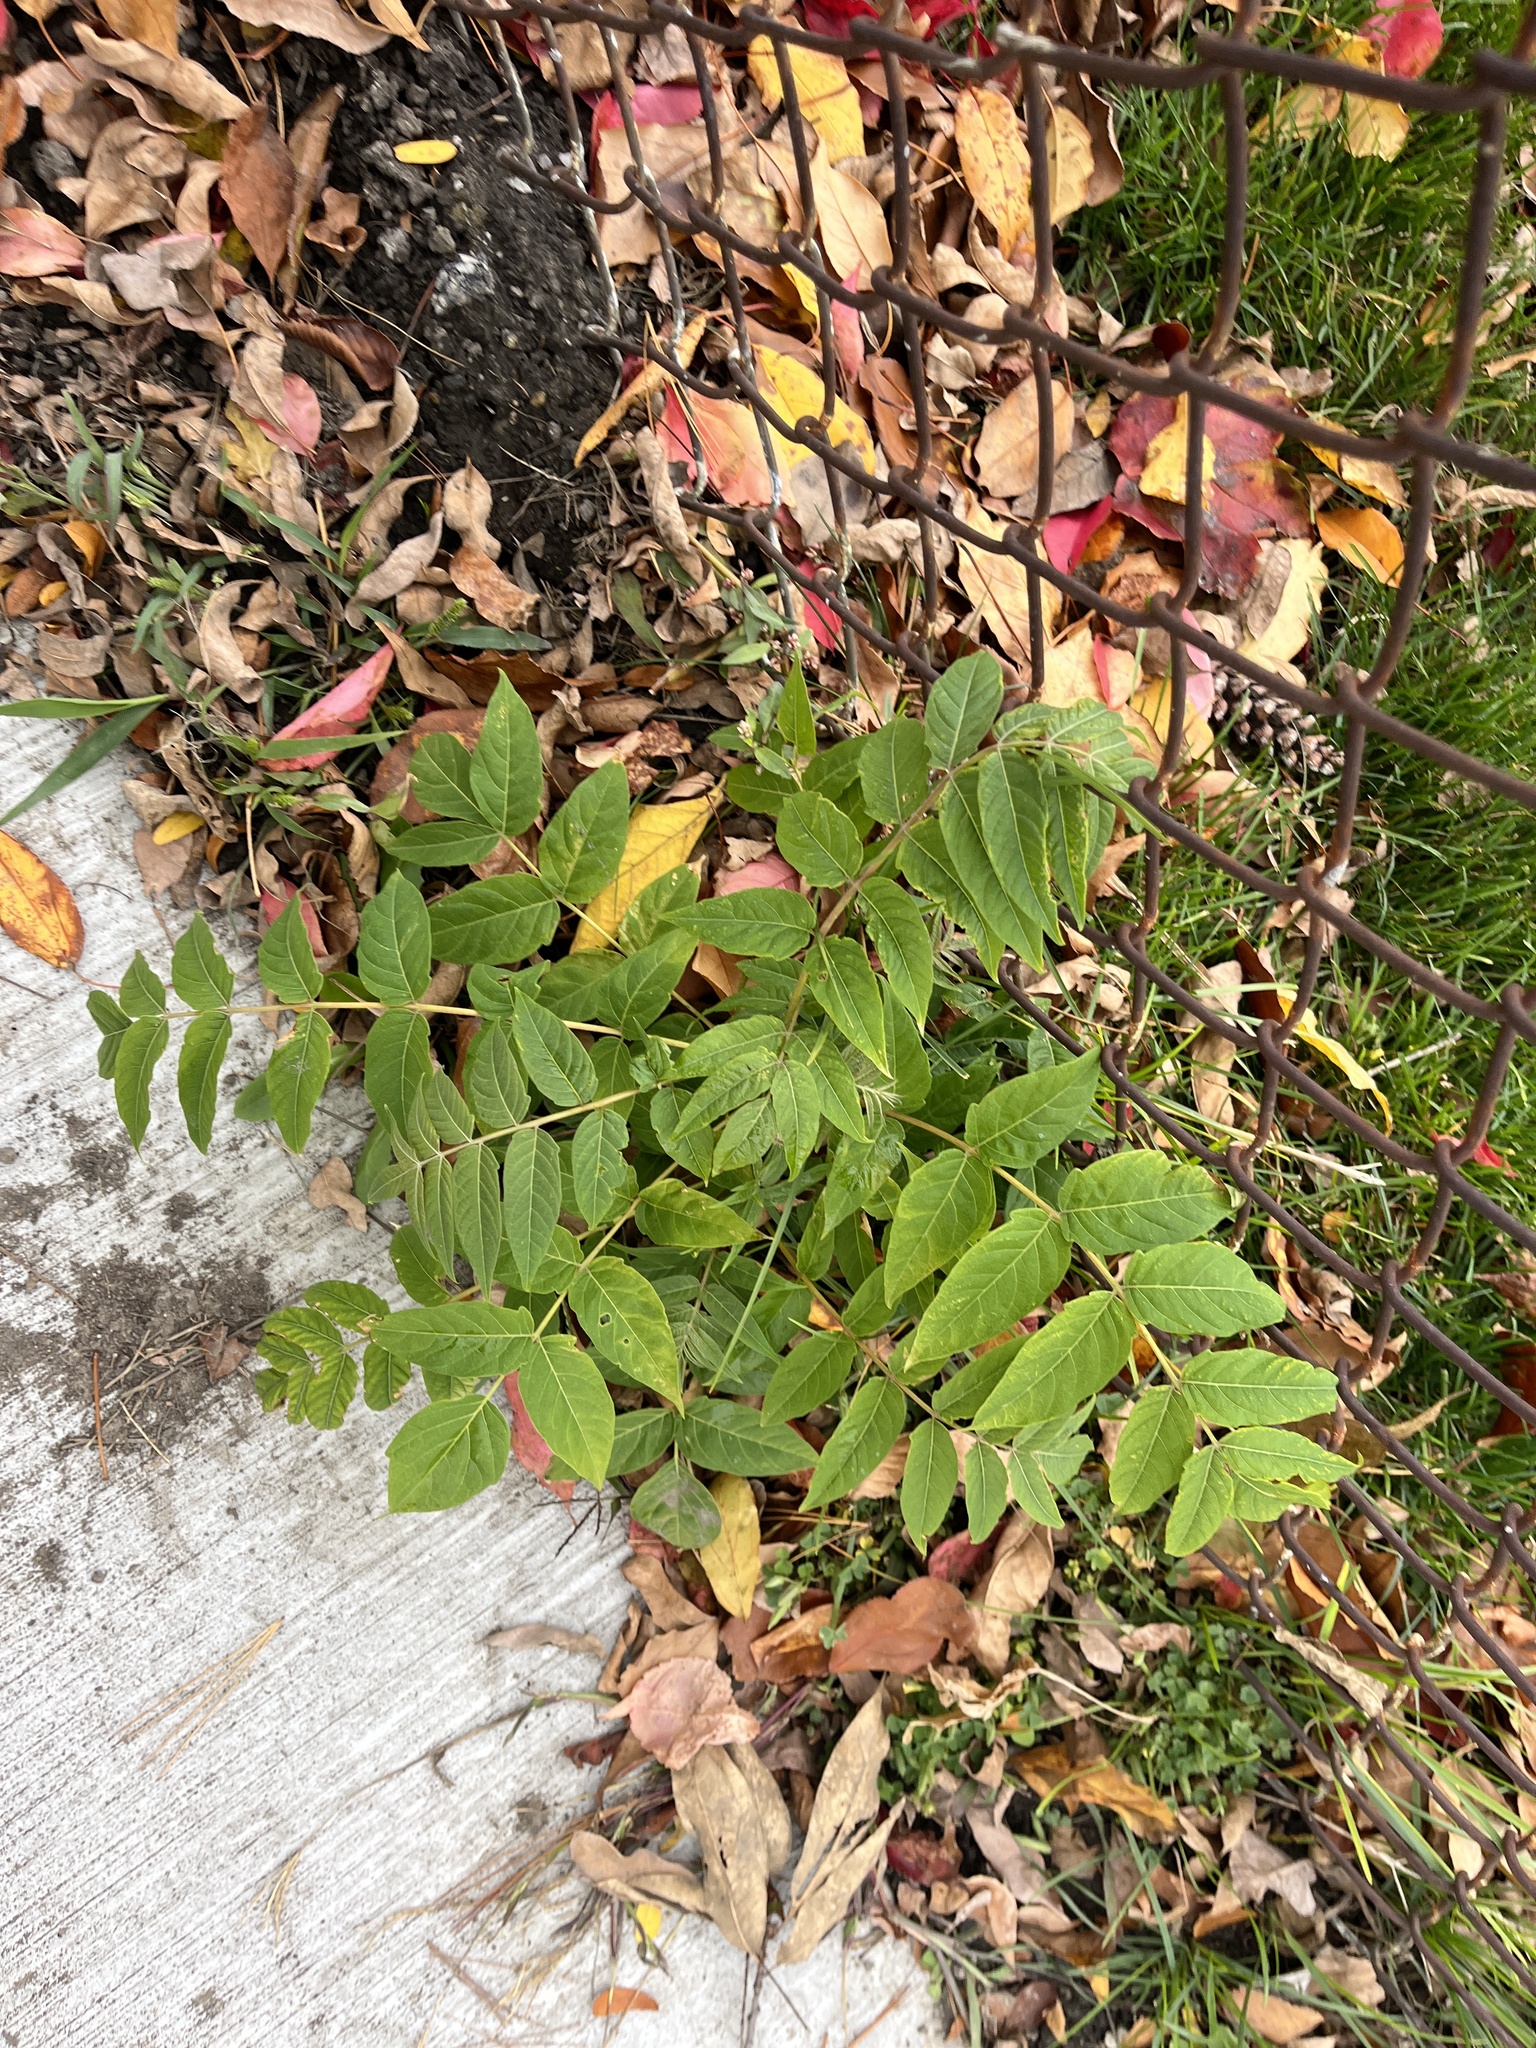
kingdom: Plantae
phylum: Tracheophyta
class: Magnoliopsida
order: Sapindales
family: Simaroubaceae
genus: Ailanthus
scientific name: Ailanthus altissima
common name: Tree-of-heaven
